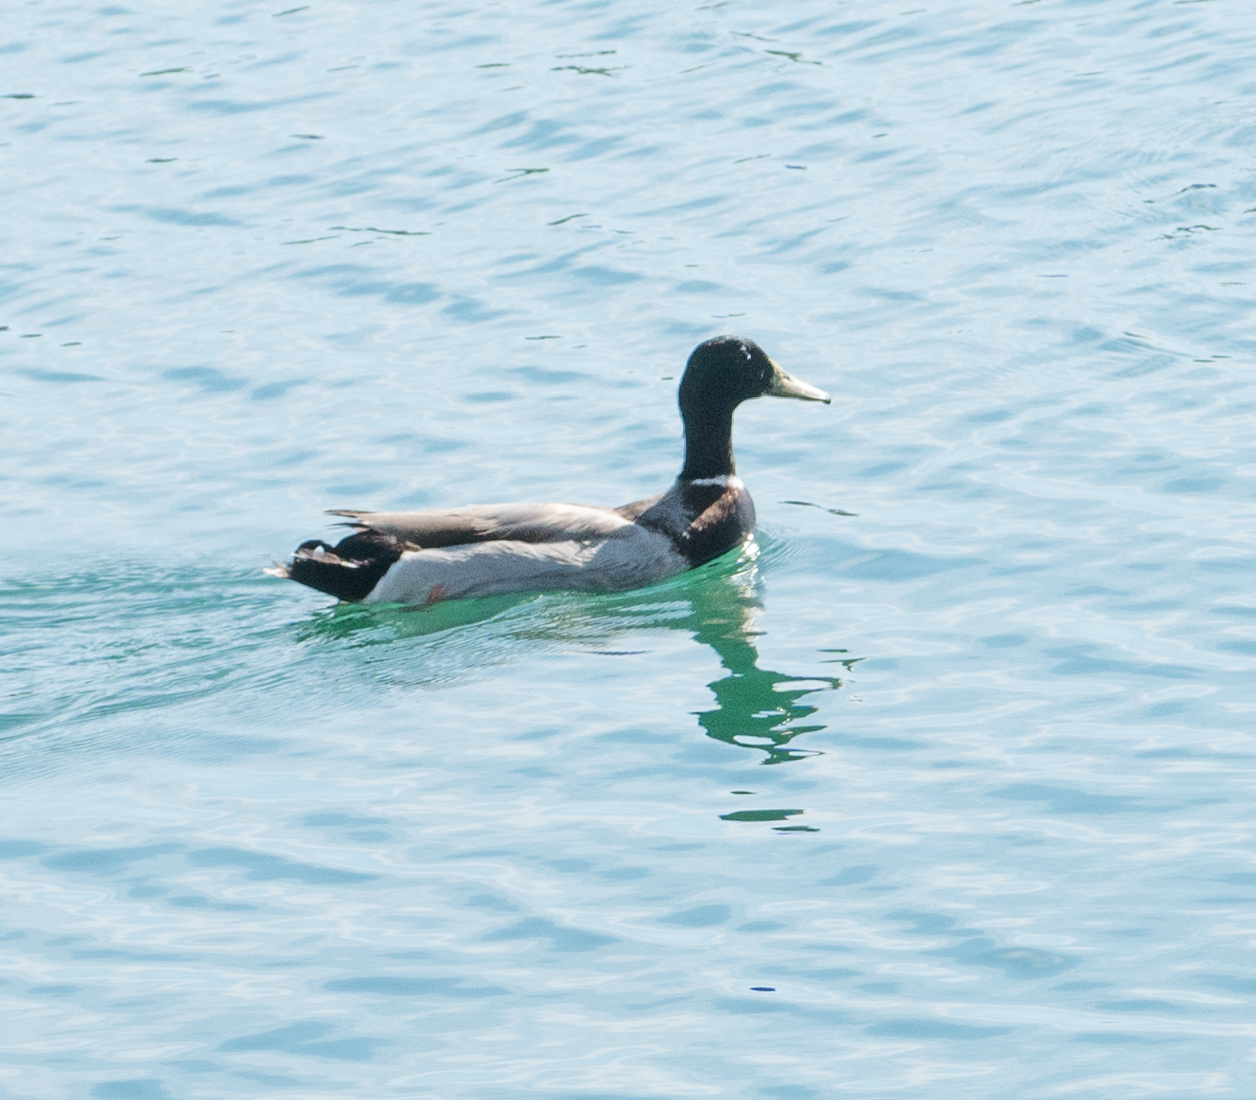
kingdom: Animalia
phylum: Chordata
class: Aves
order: Anseriformes
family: Anatidae
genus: Anas
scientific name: Anas platyrhynchos
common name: Mallard
